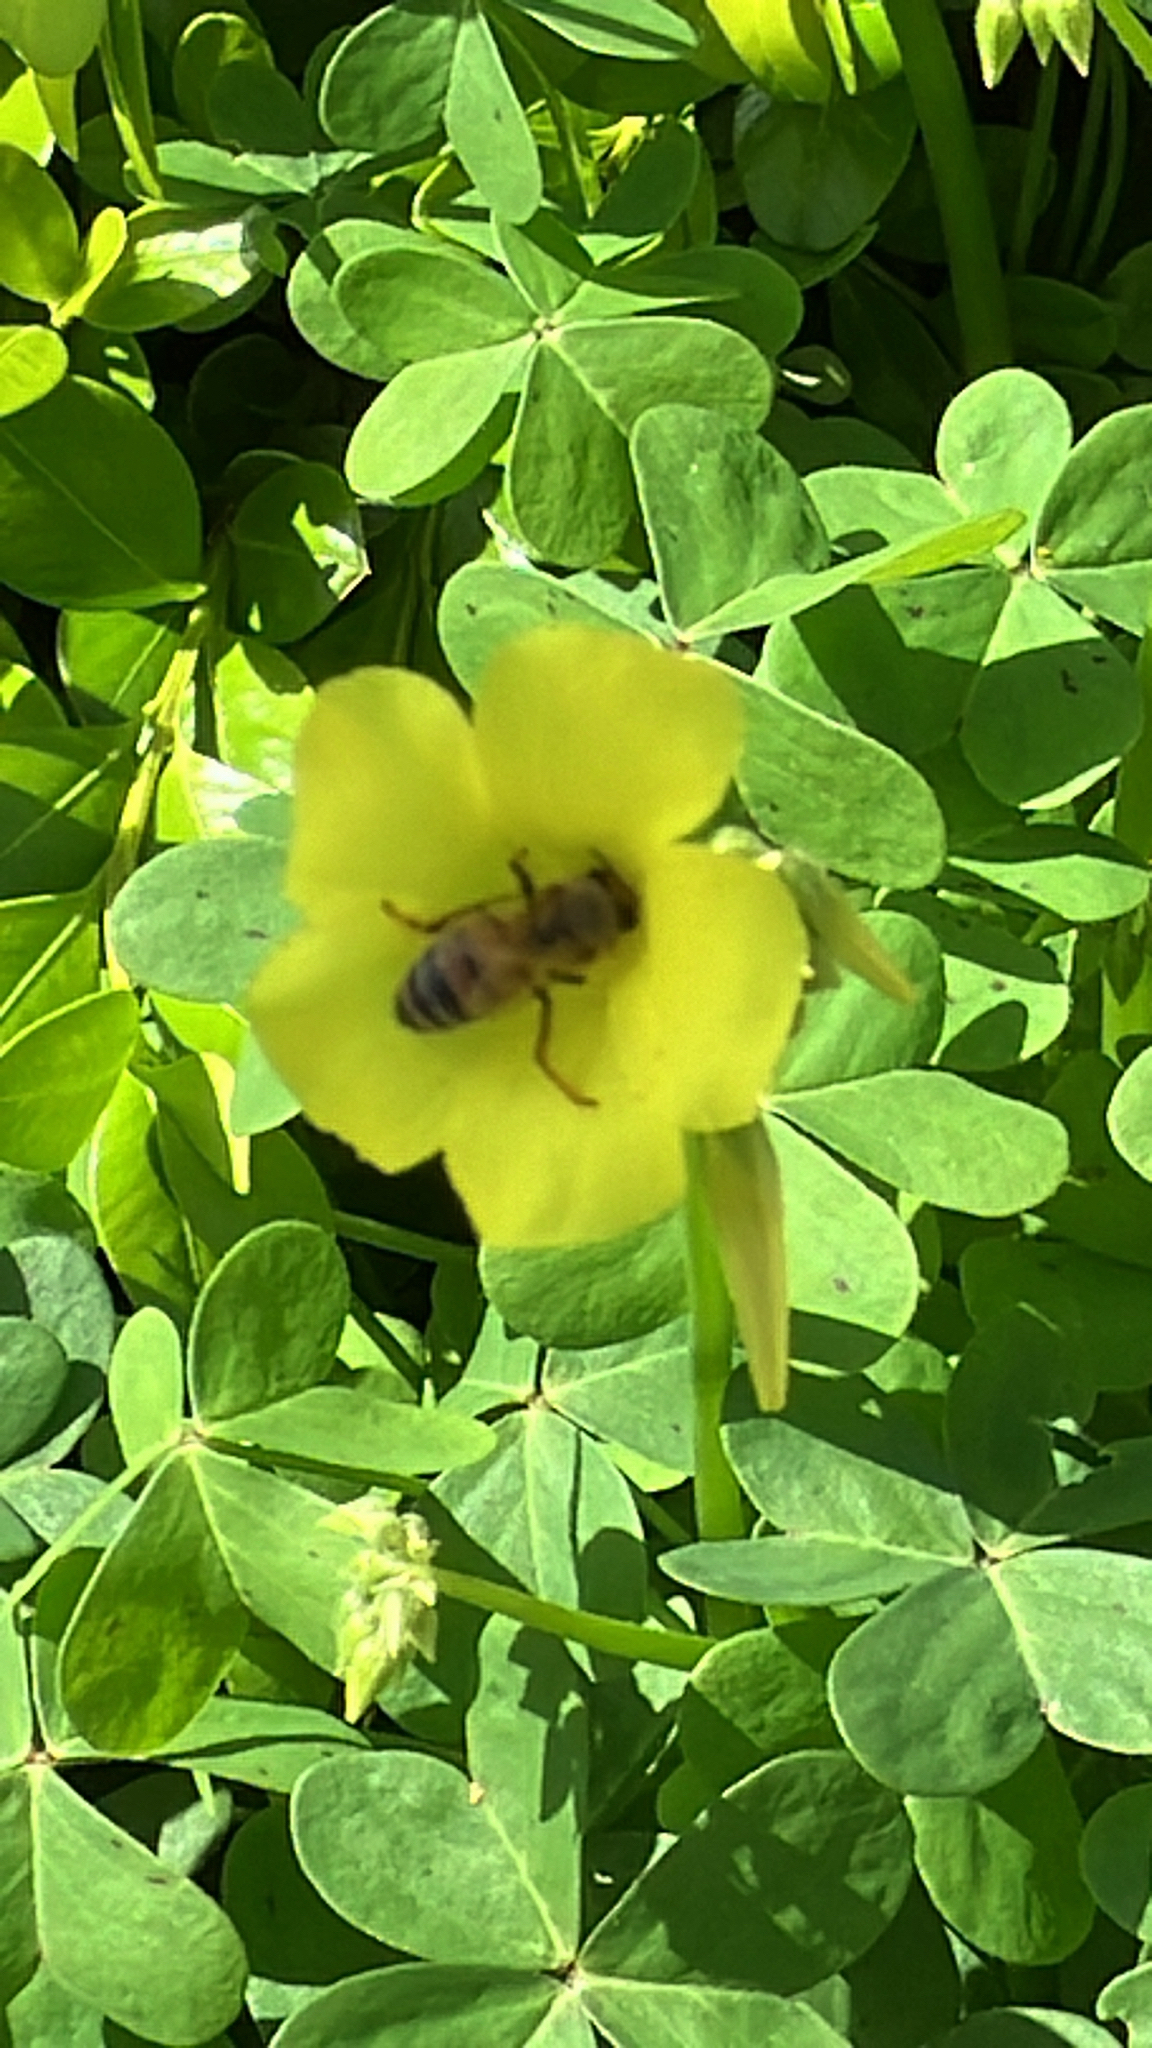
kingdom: Animalia
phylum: Arthropoda
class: Insecta
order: Hymenoptera
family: Apidae
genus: Apis
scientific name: Apis mellifera
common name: Honey bee
